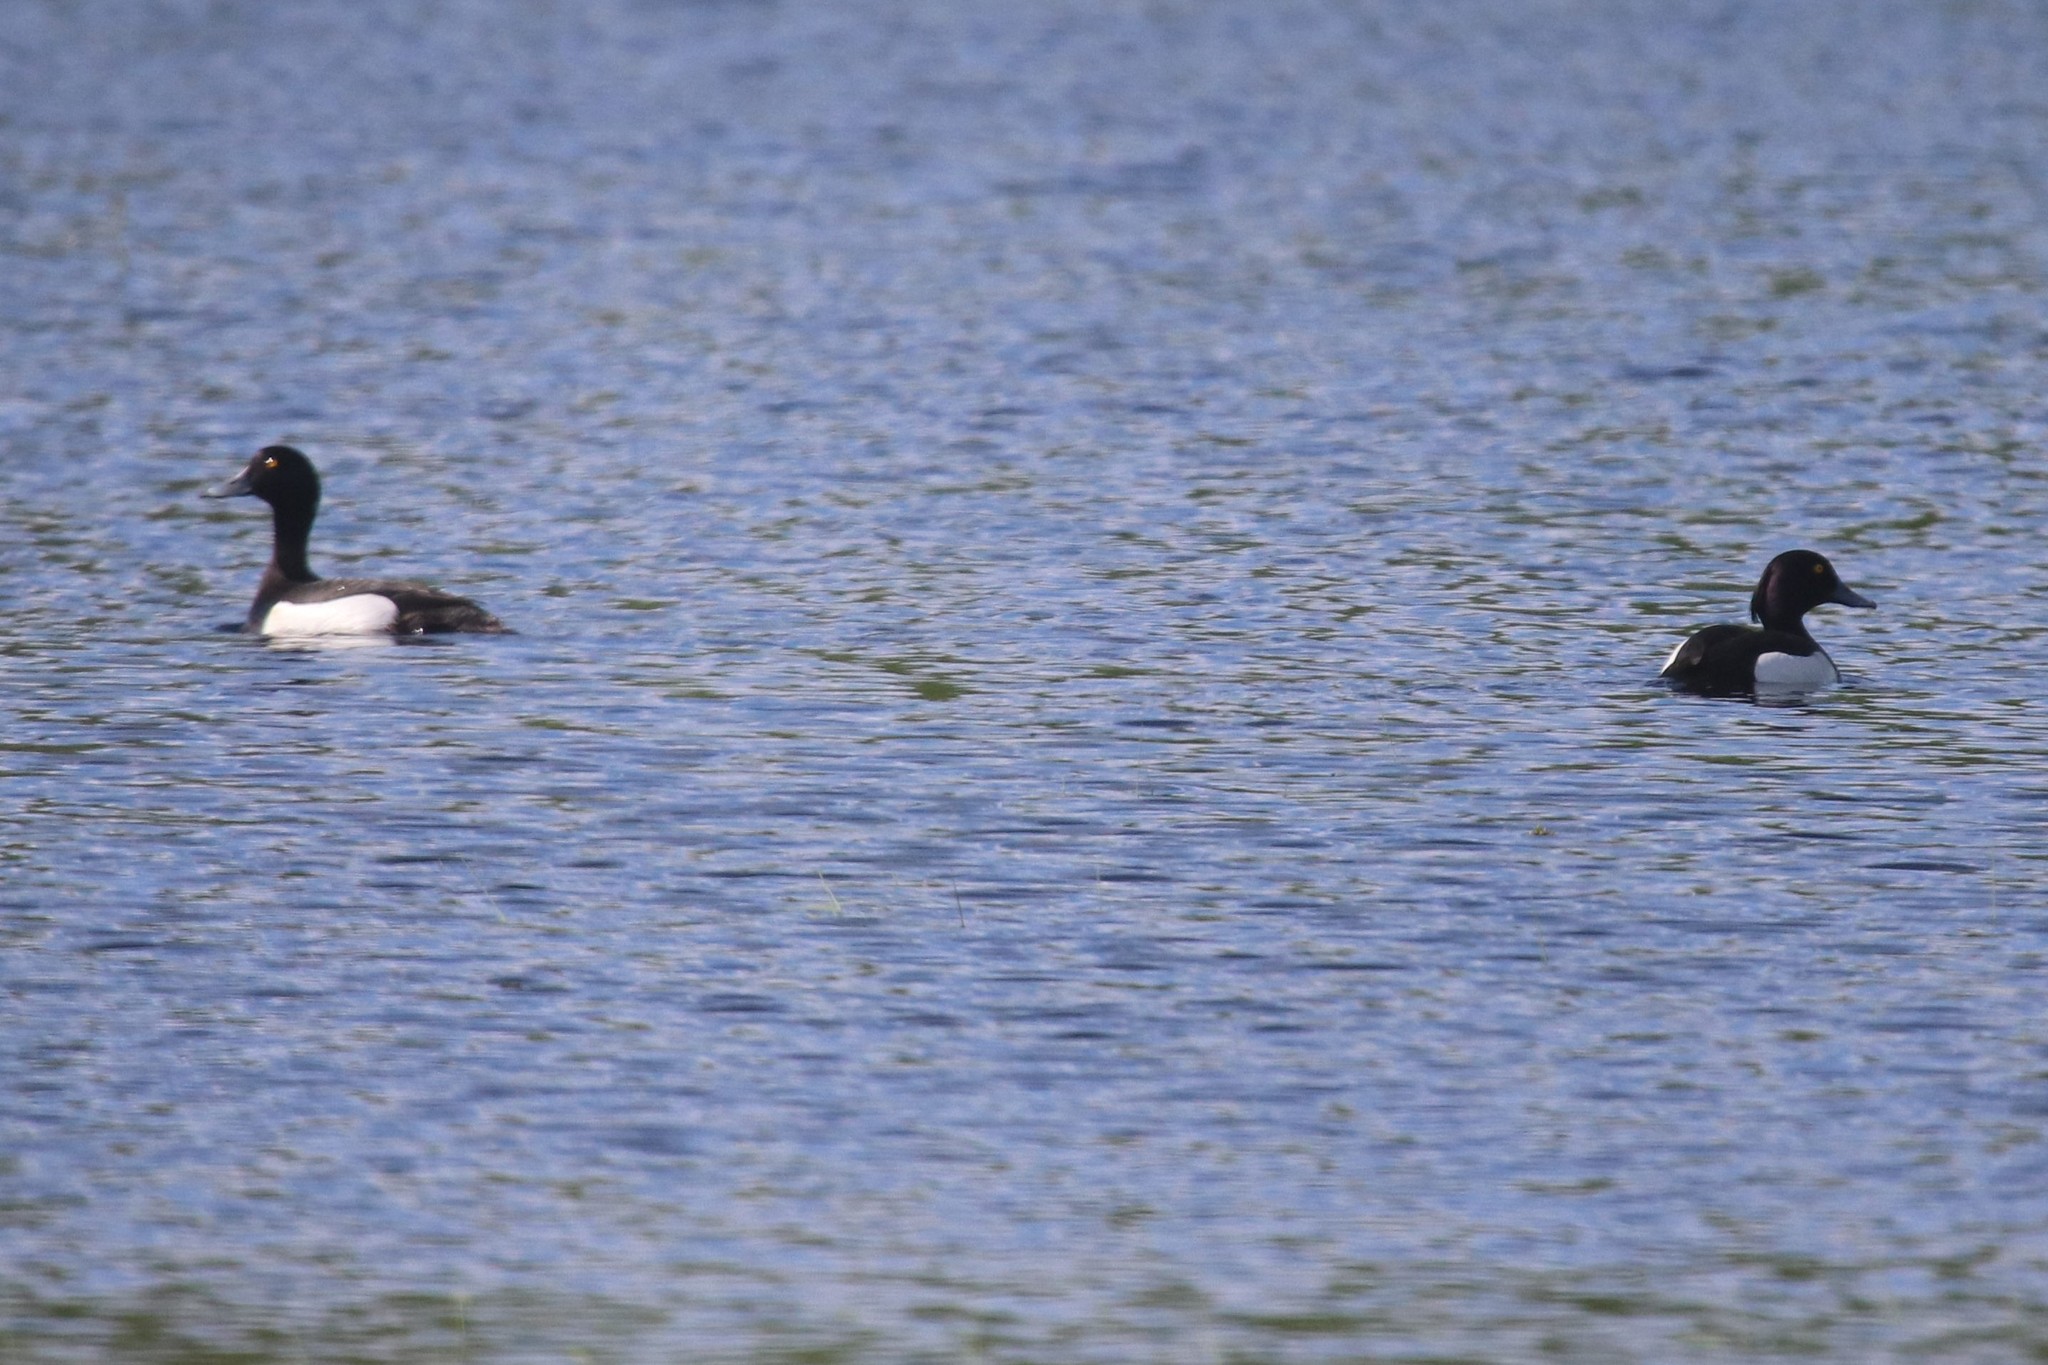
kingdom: Animalia
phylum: Chordata
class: Aves
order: Anseriformes
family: Anatidae
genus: Aythya
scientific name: Aythya fuligula
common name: Tufted duck
